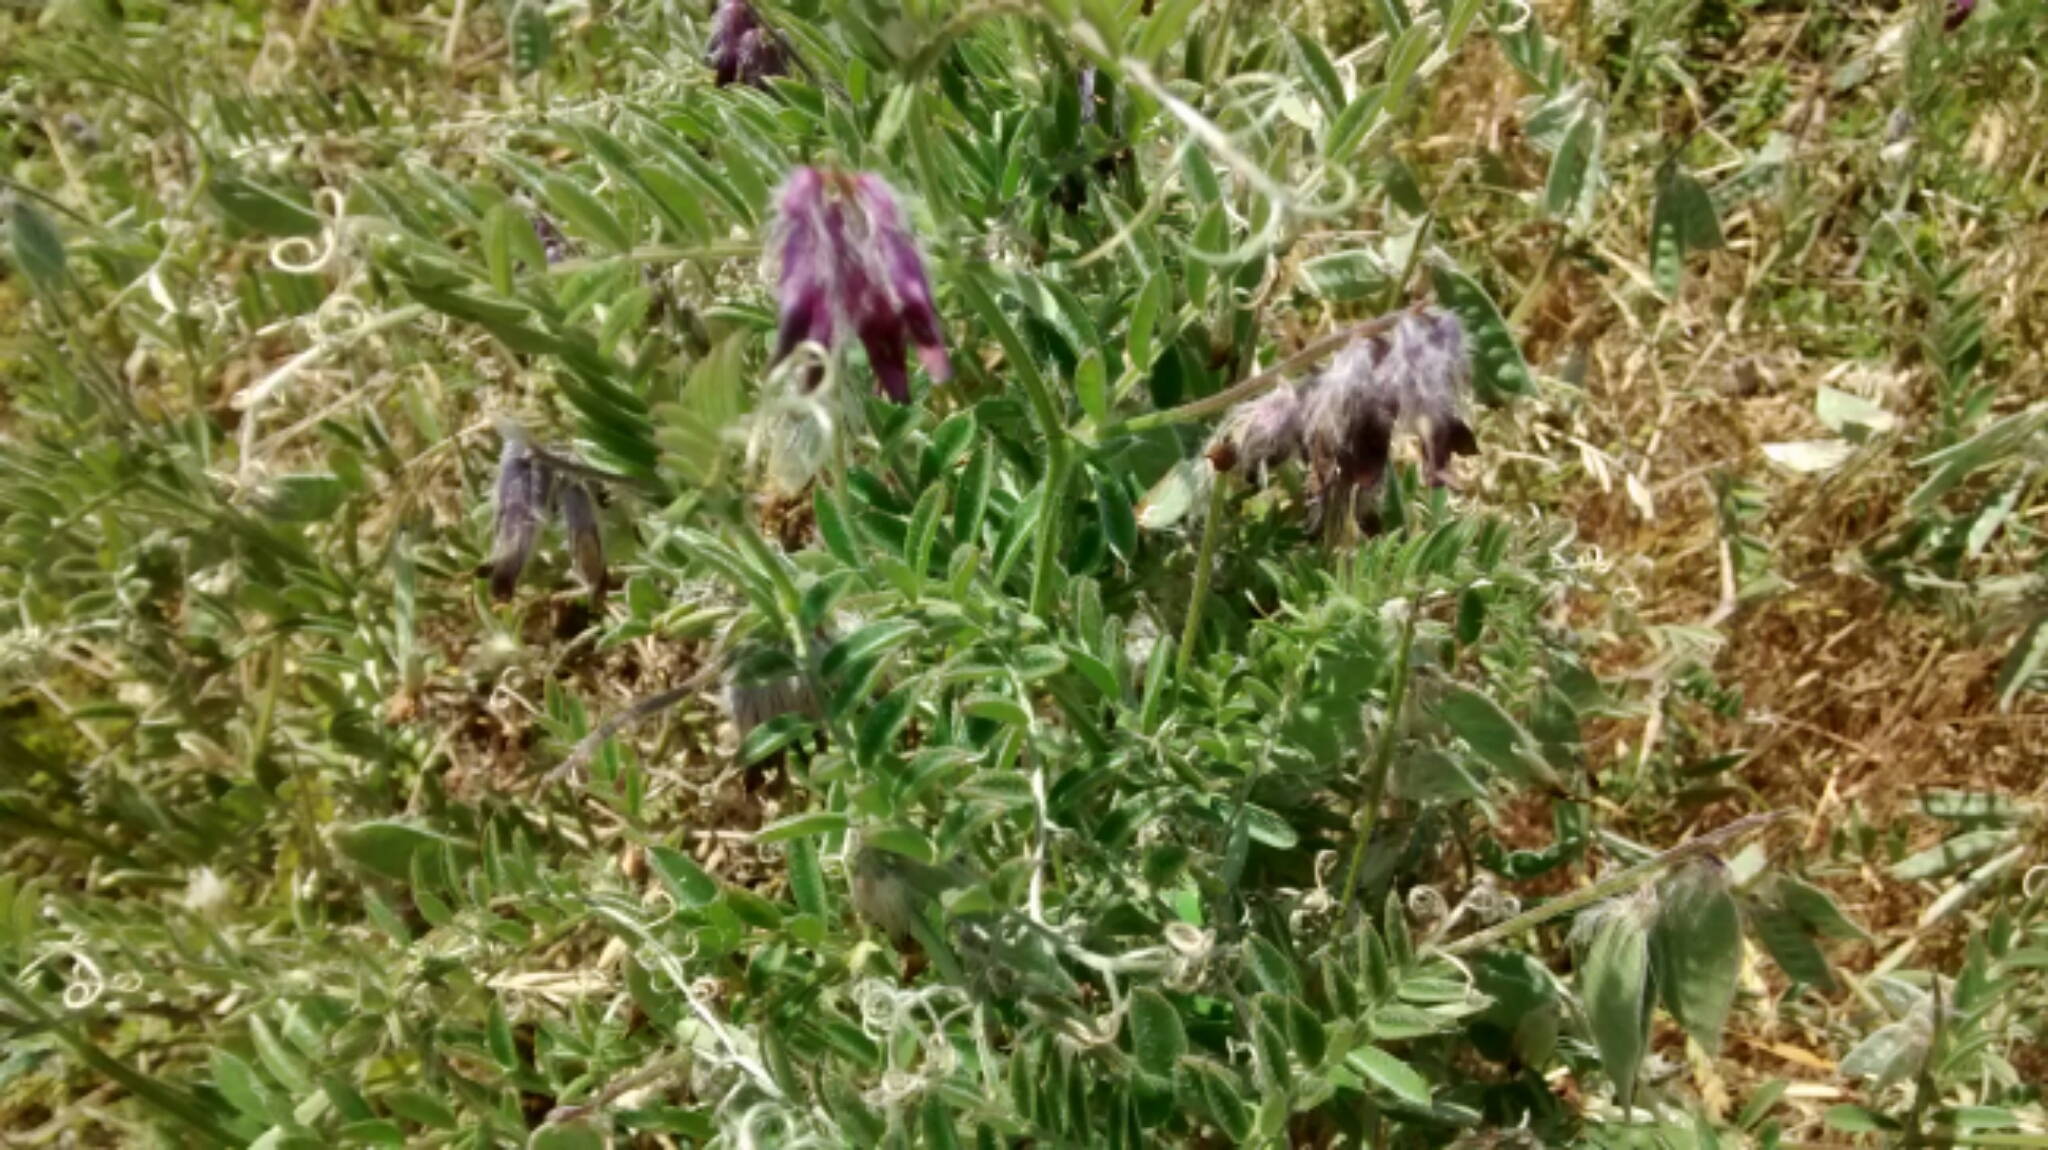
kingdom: Plantae
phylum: Tracheophyta
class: Magnoliopsida
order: Fabales
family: Fabaceae
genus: Vicia
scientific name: Vicia benghalensis
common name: Purple vetch
